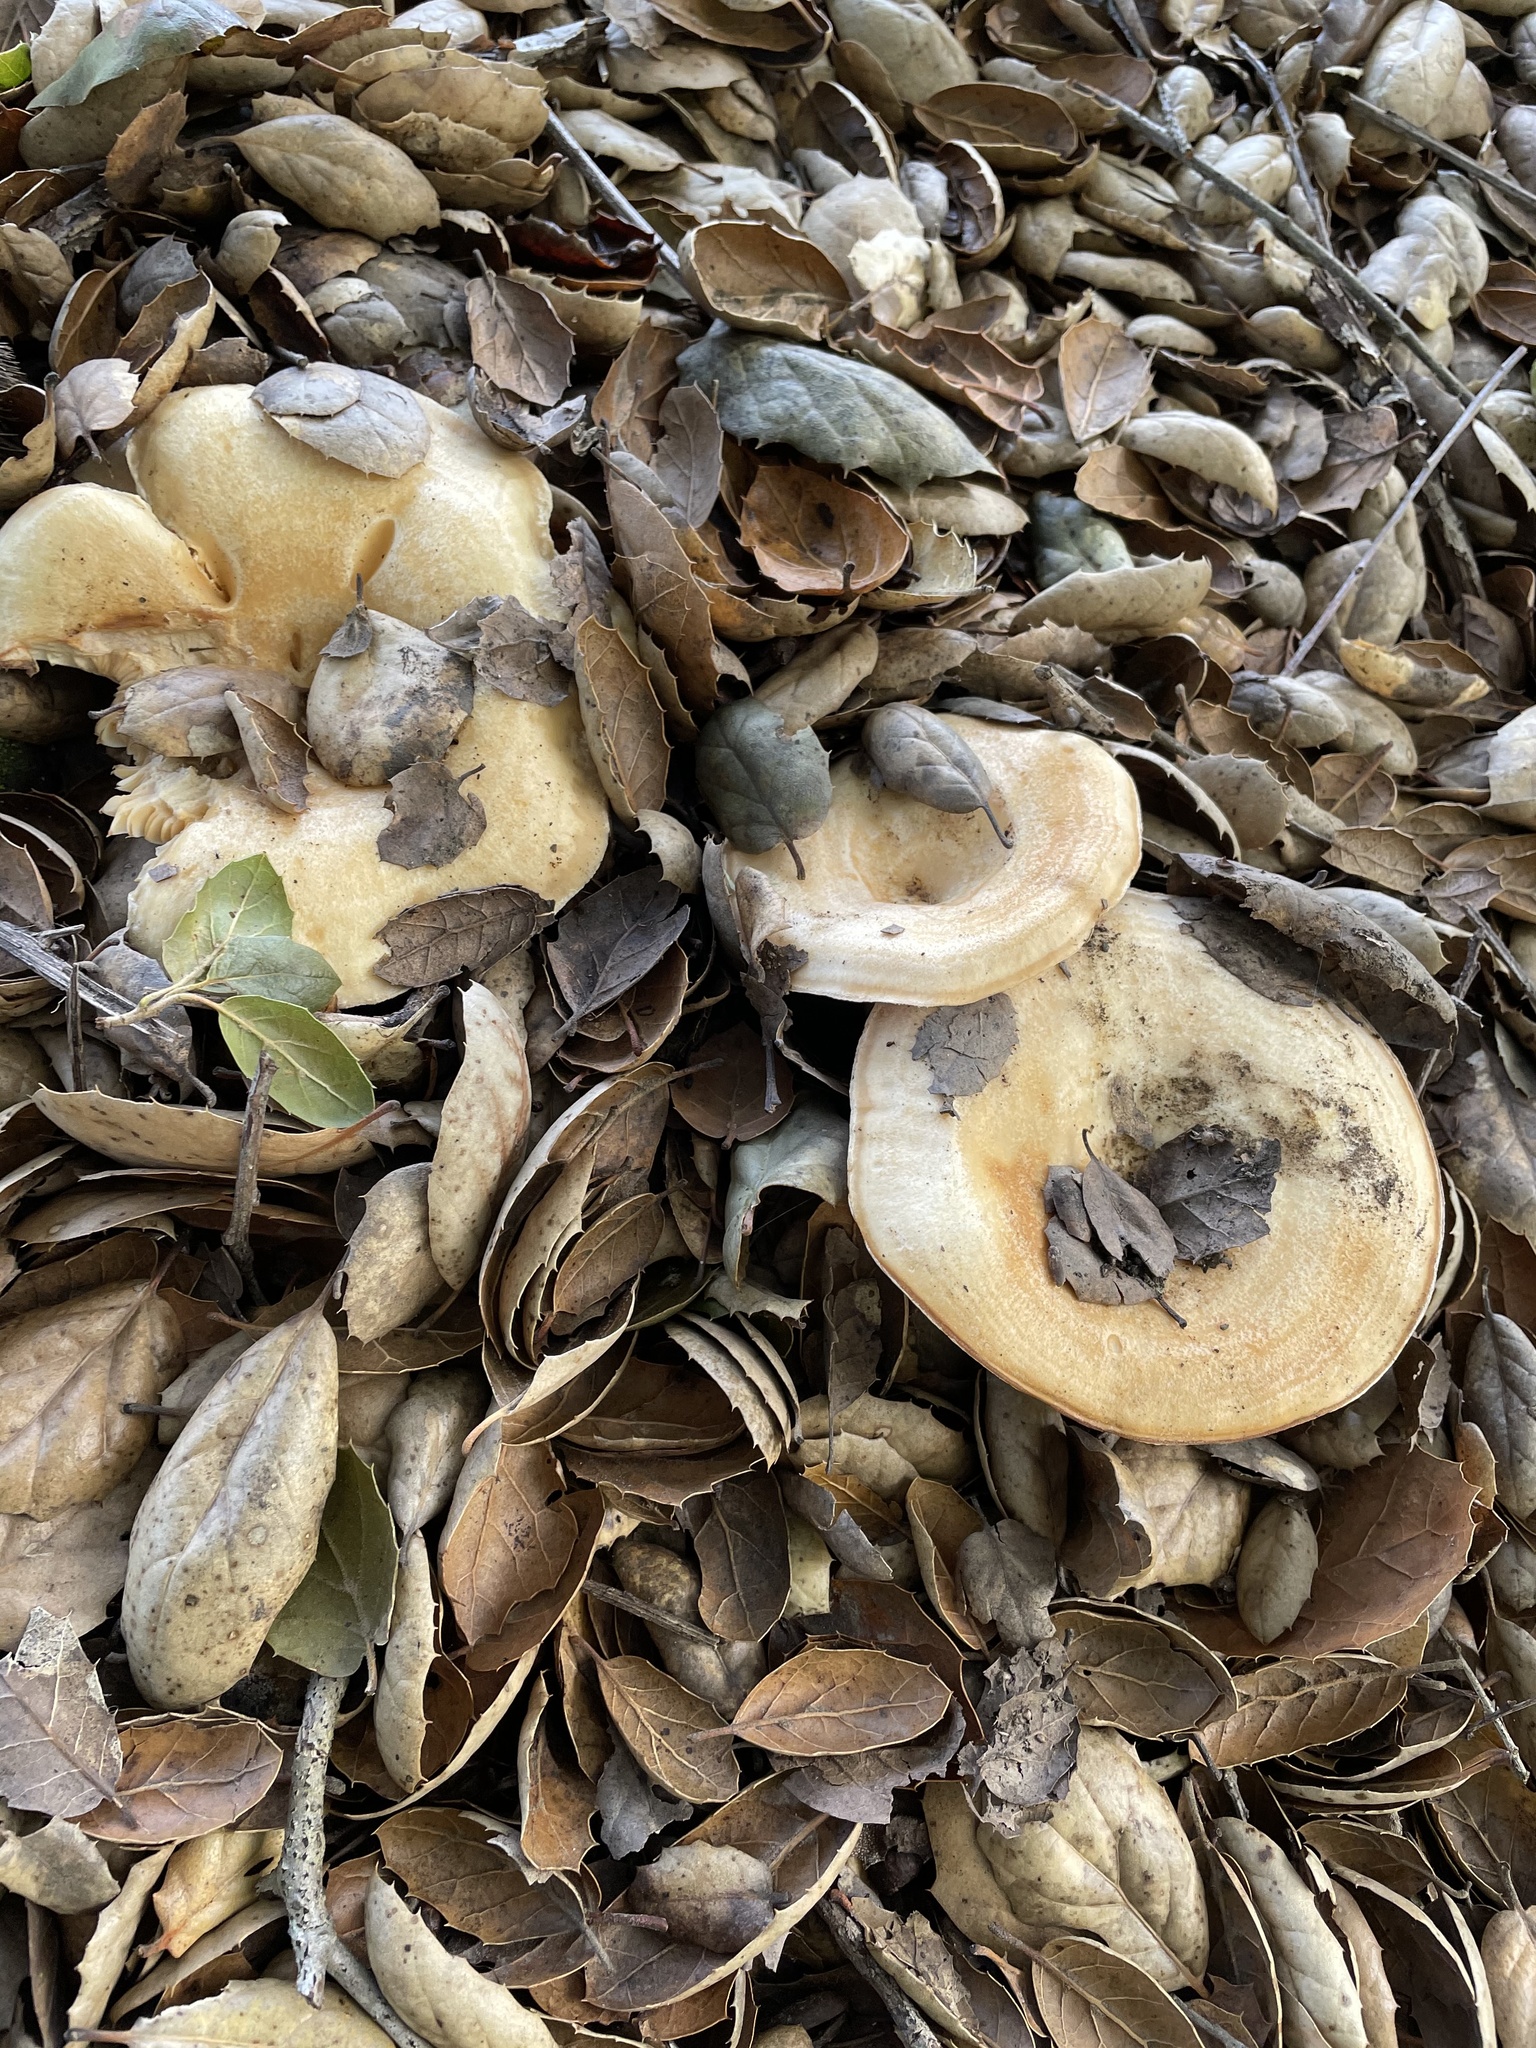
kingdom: Fungi
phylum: Basidiomycota
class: Agaricomycetes
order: Russulales
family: Russulaceae
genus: Lactarius
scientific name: Lactarius alnicola
